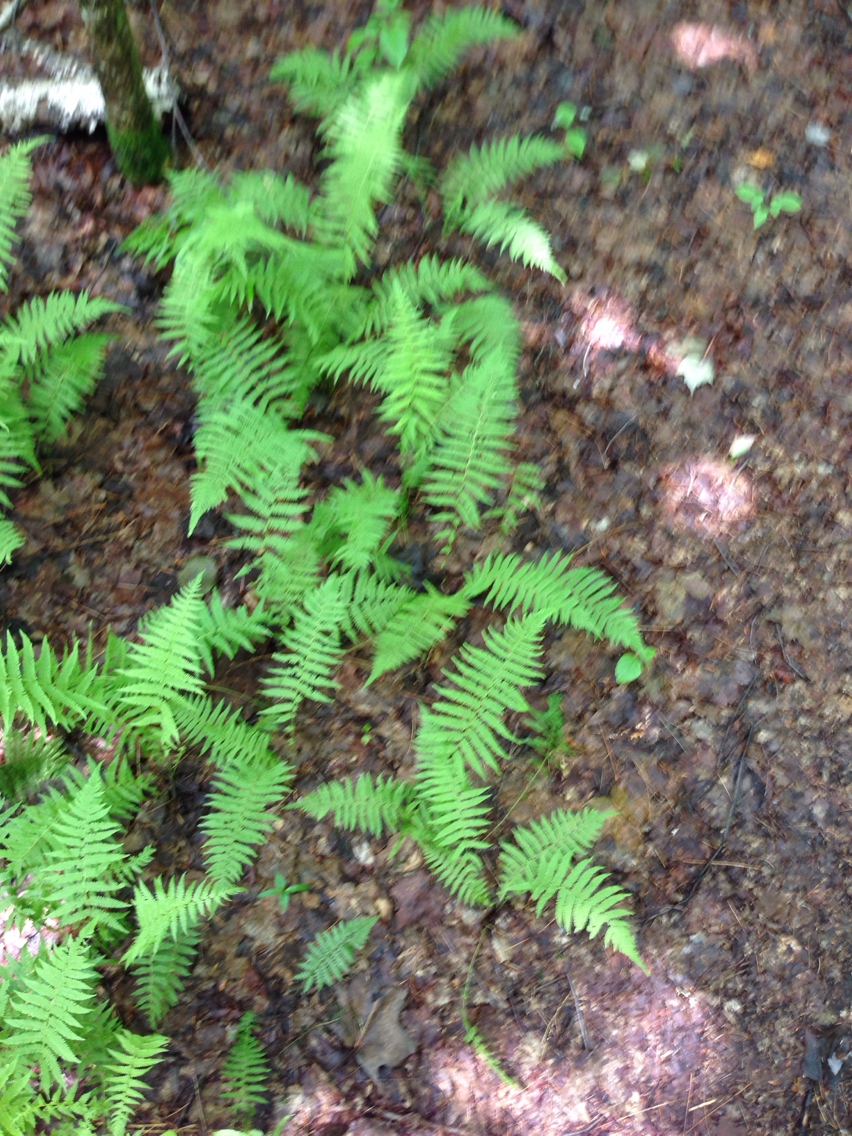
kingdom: Plantae
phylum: Tracheophyta
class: Polypodiopsida
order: Polypodiales
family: Thelypteridaceae
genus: Amauropelta
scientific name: Amauropelta noveboracensis
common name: New york fern
